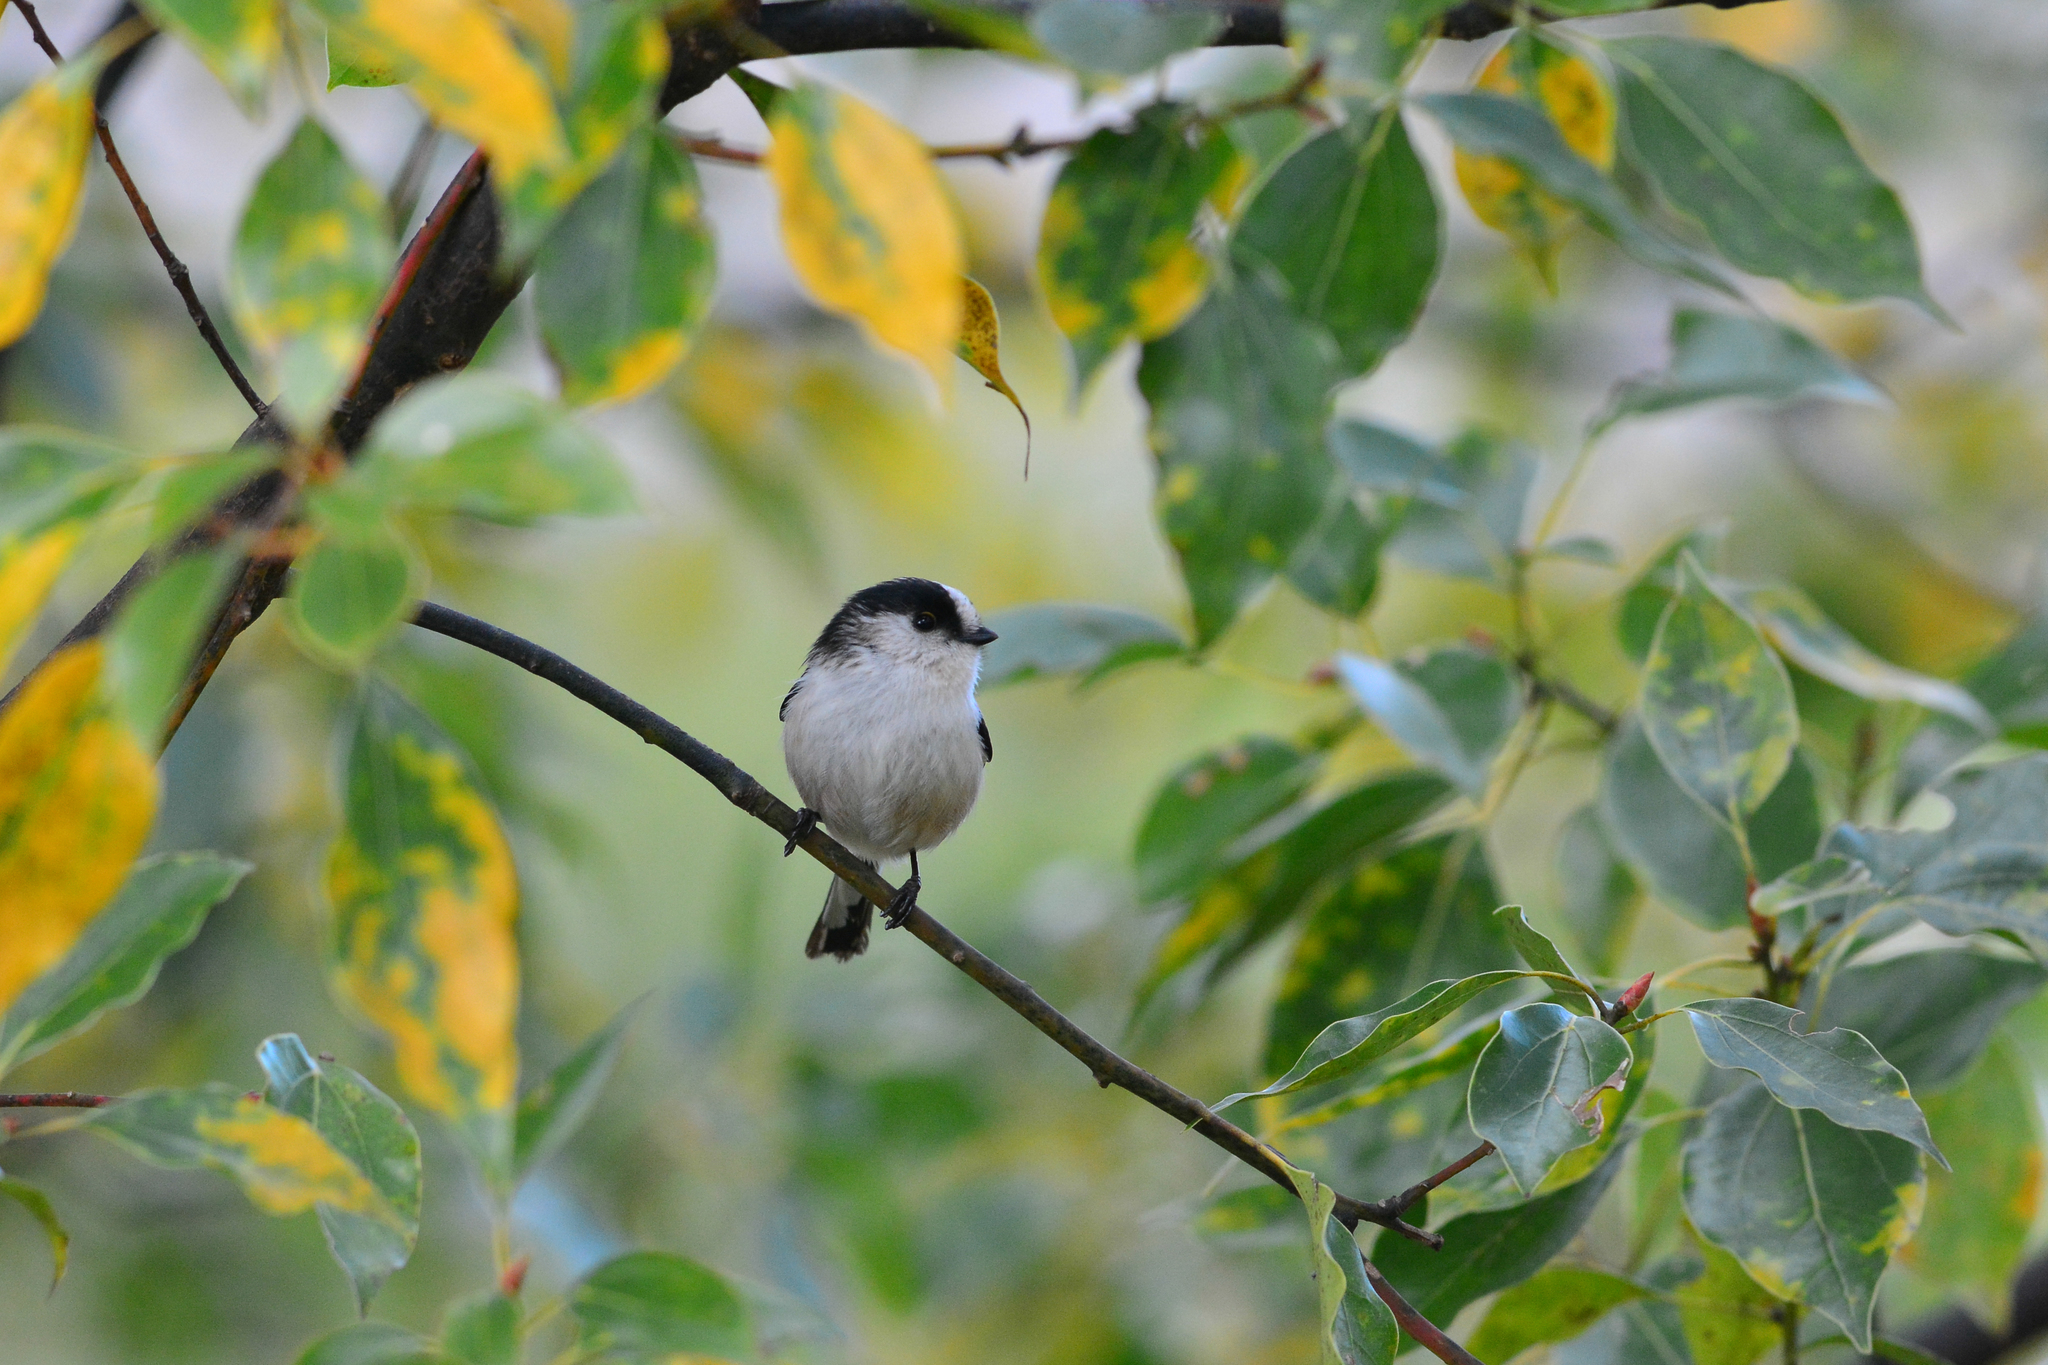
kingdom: Animalia
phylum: Chordata
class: Aves
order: Passeriformes
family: Aegithalidae
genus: Aegithalos
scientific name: Aegithalos caudatus
